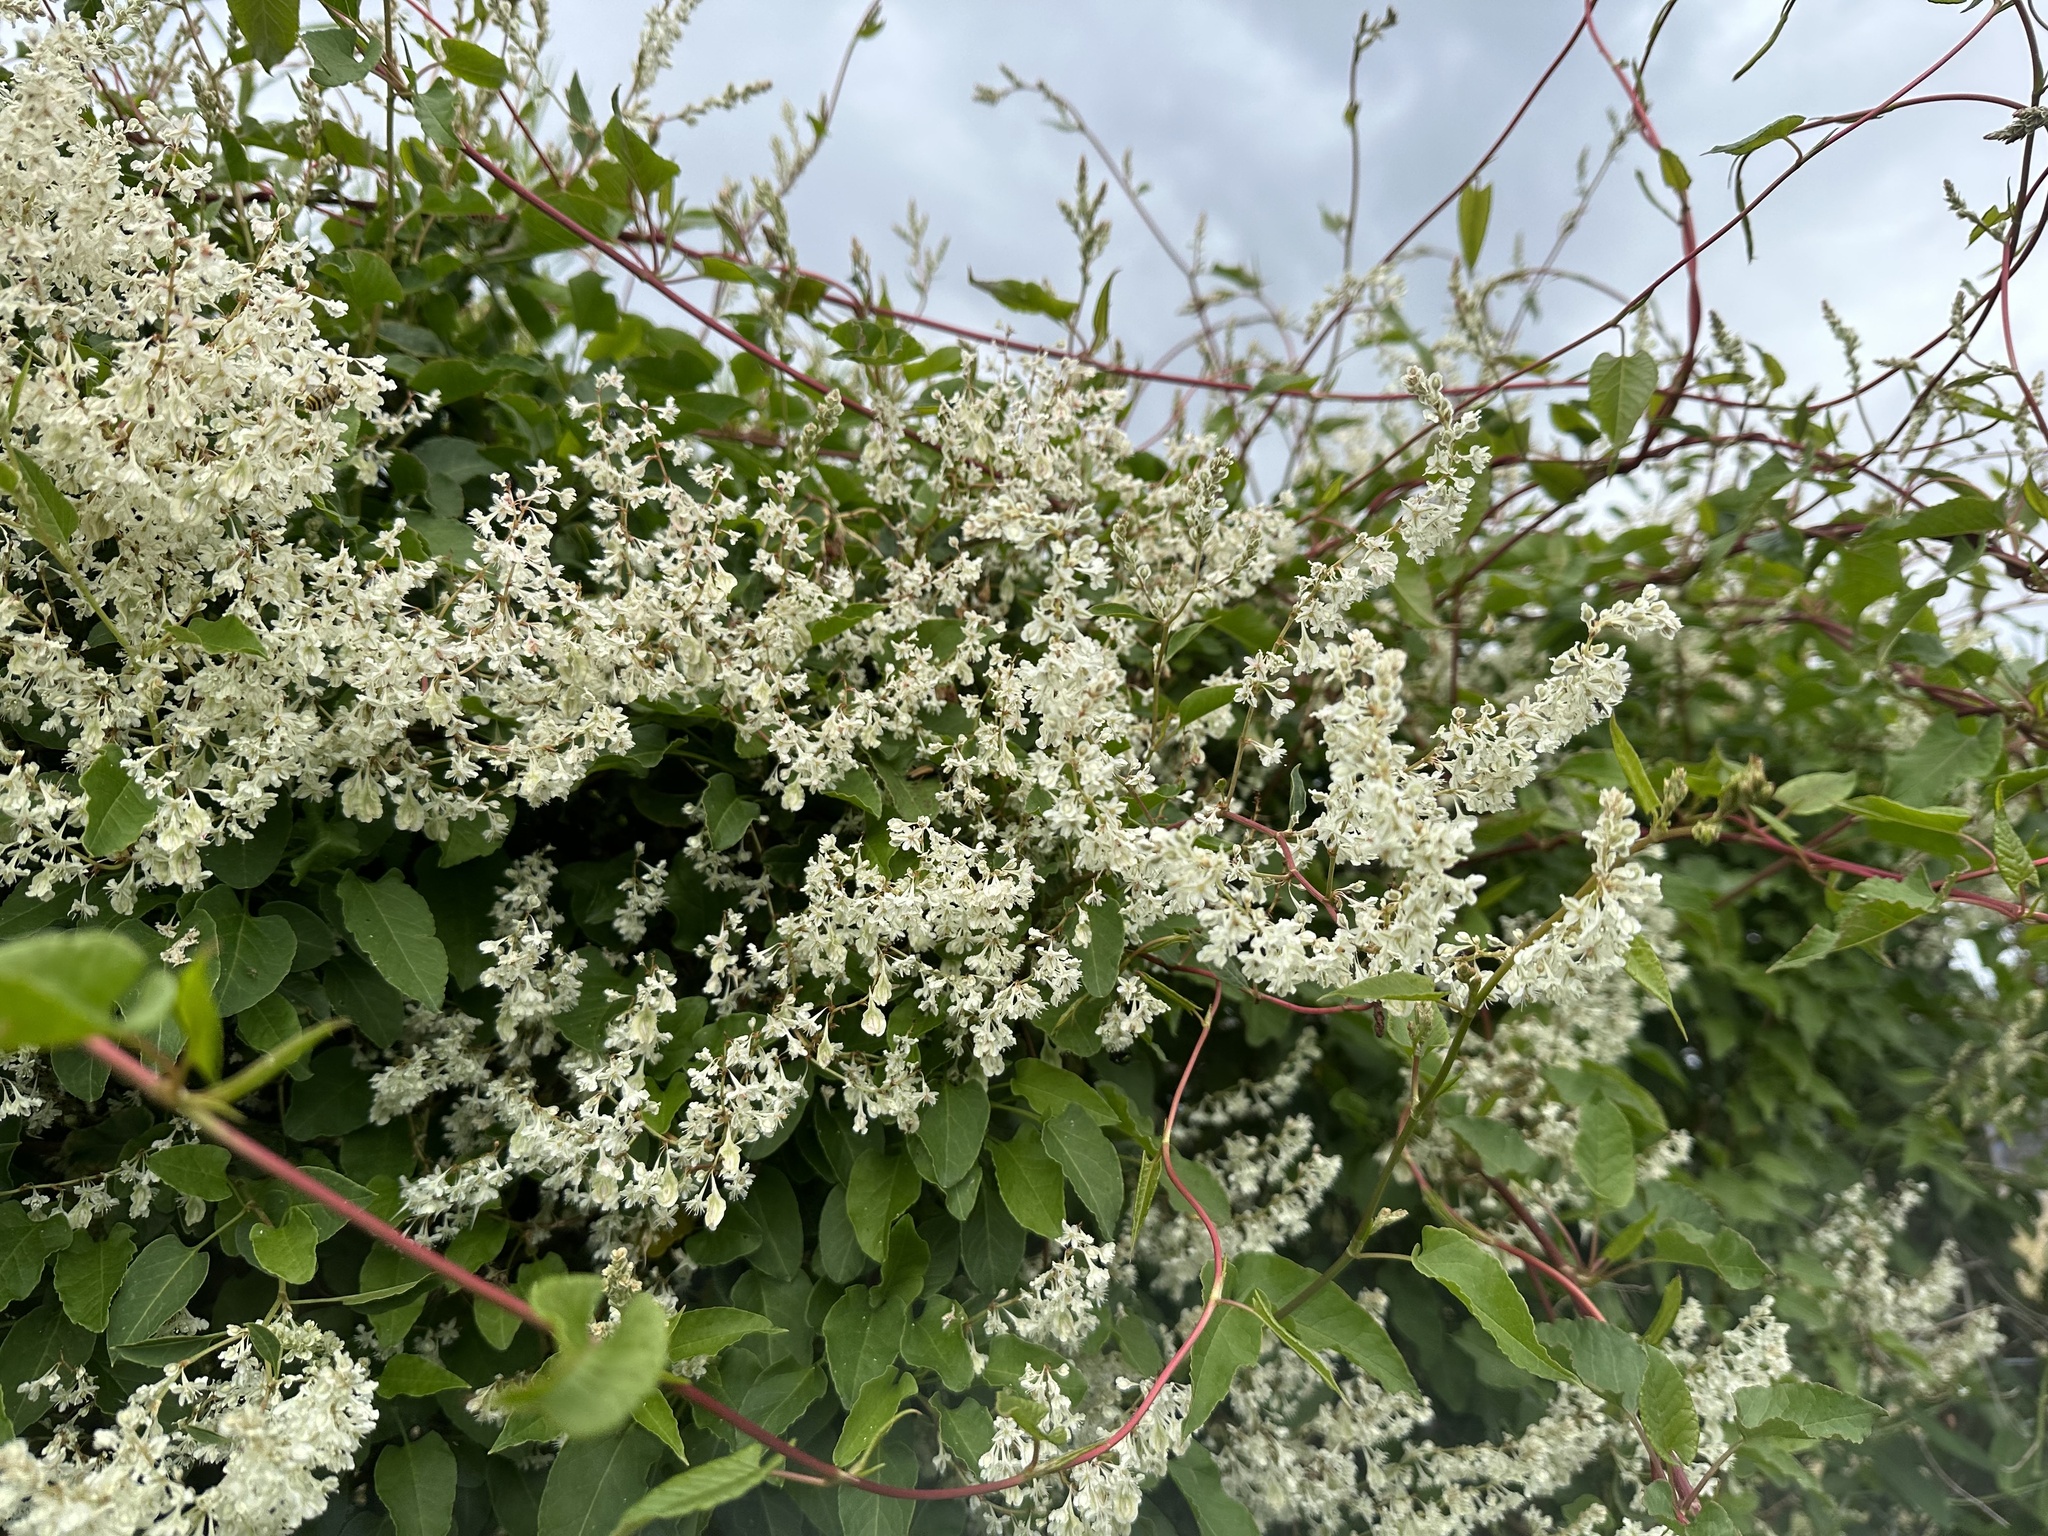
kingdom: Plantae
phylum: Tracheophyta
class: Magnoliopsida
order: Caryophyllales
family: Polygonaceae
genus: Fallopia
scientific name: Fallopia baldschuanica
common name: Russian-vine
